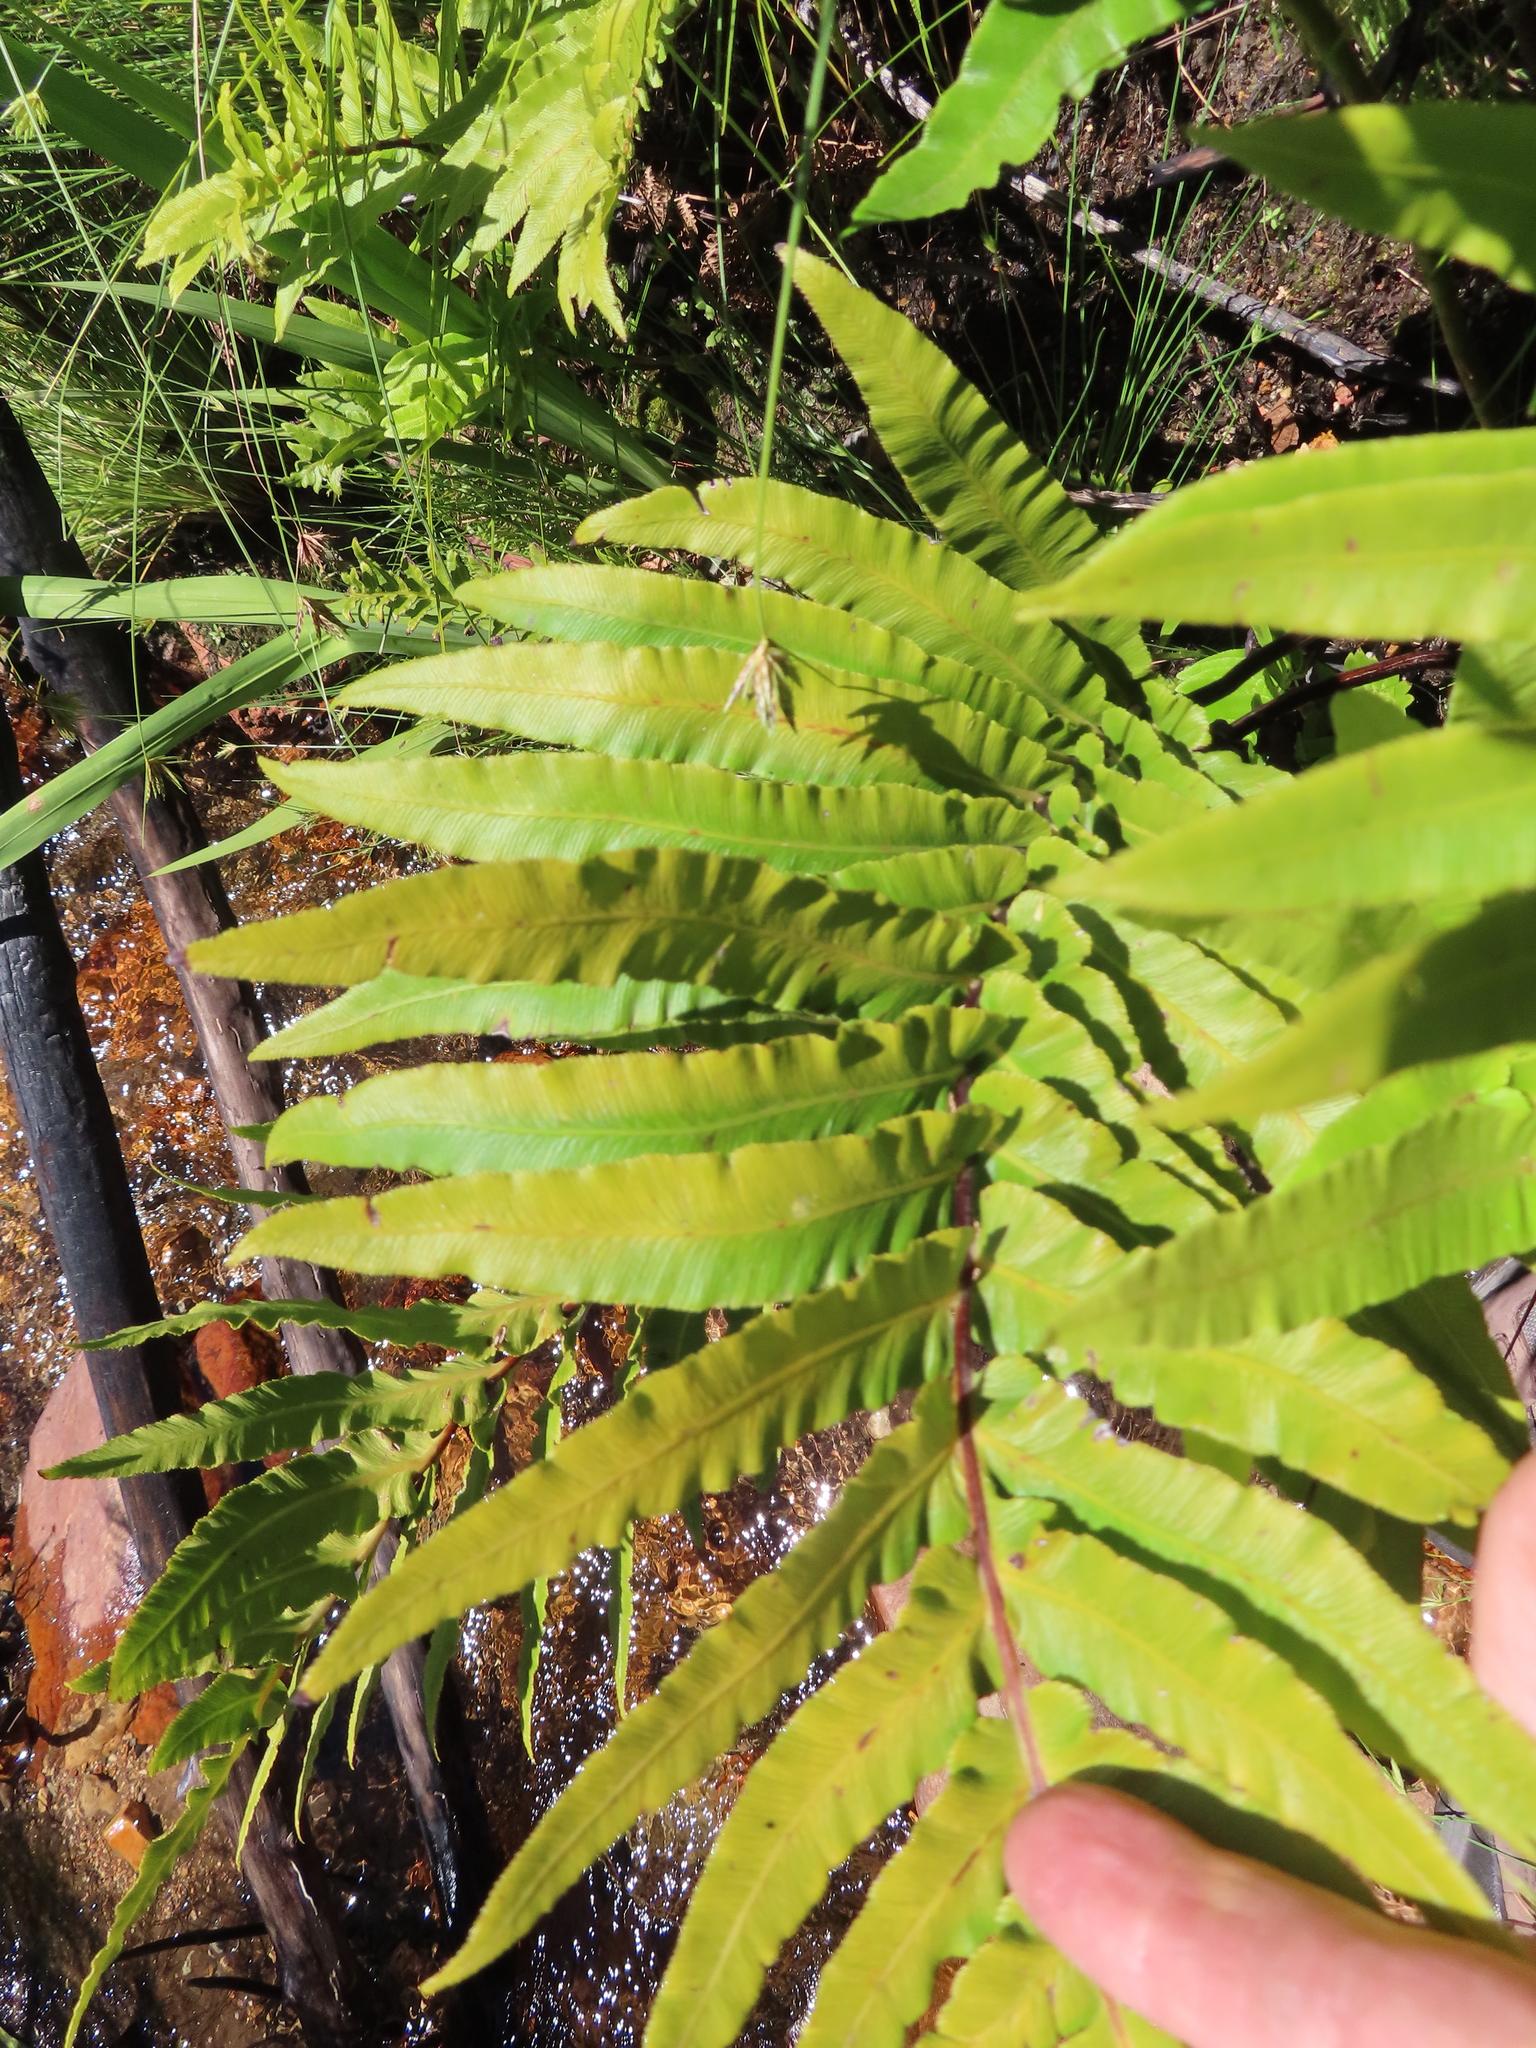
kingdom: Plantae
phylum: Tracheophyta
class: Polypodiopsida
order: Polypodiales
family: Blechnaceae
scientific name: Blechnaceae
